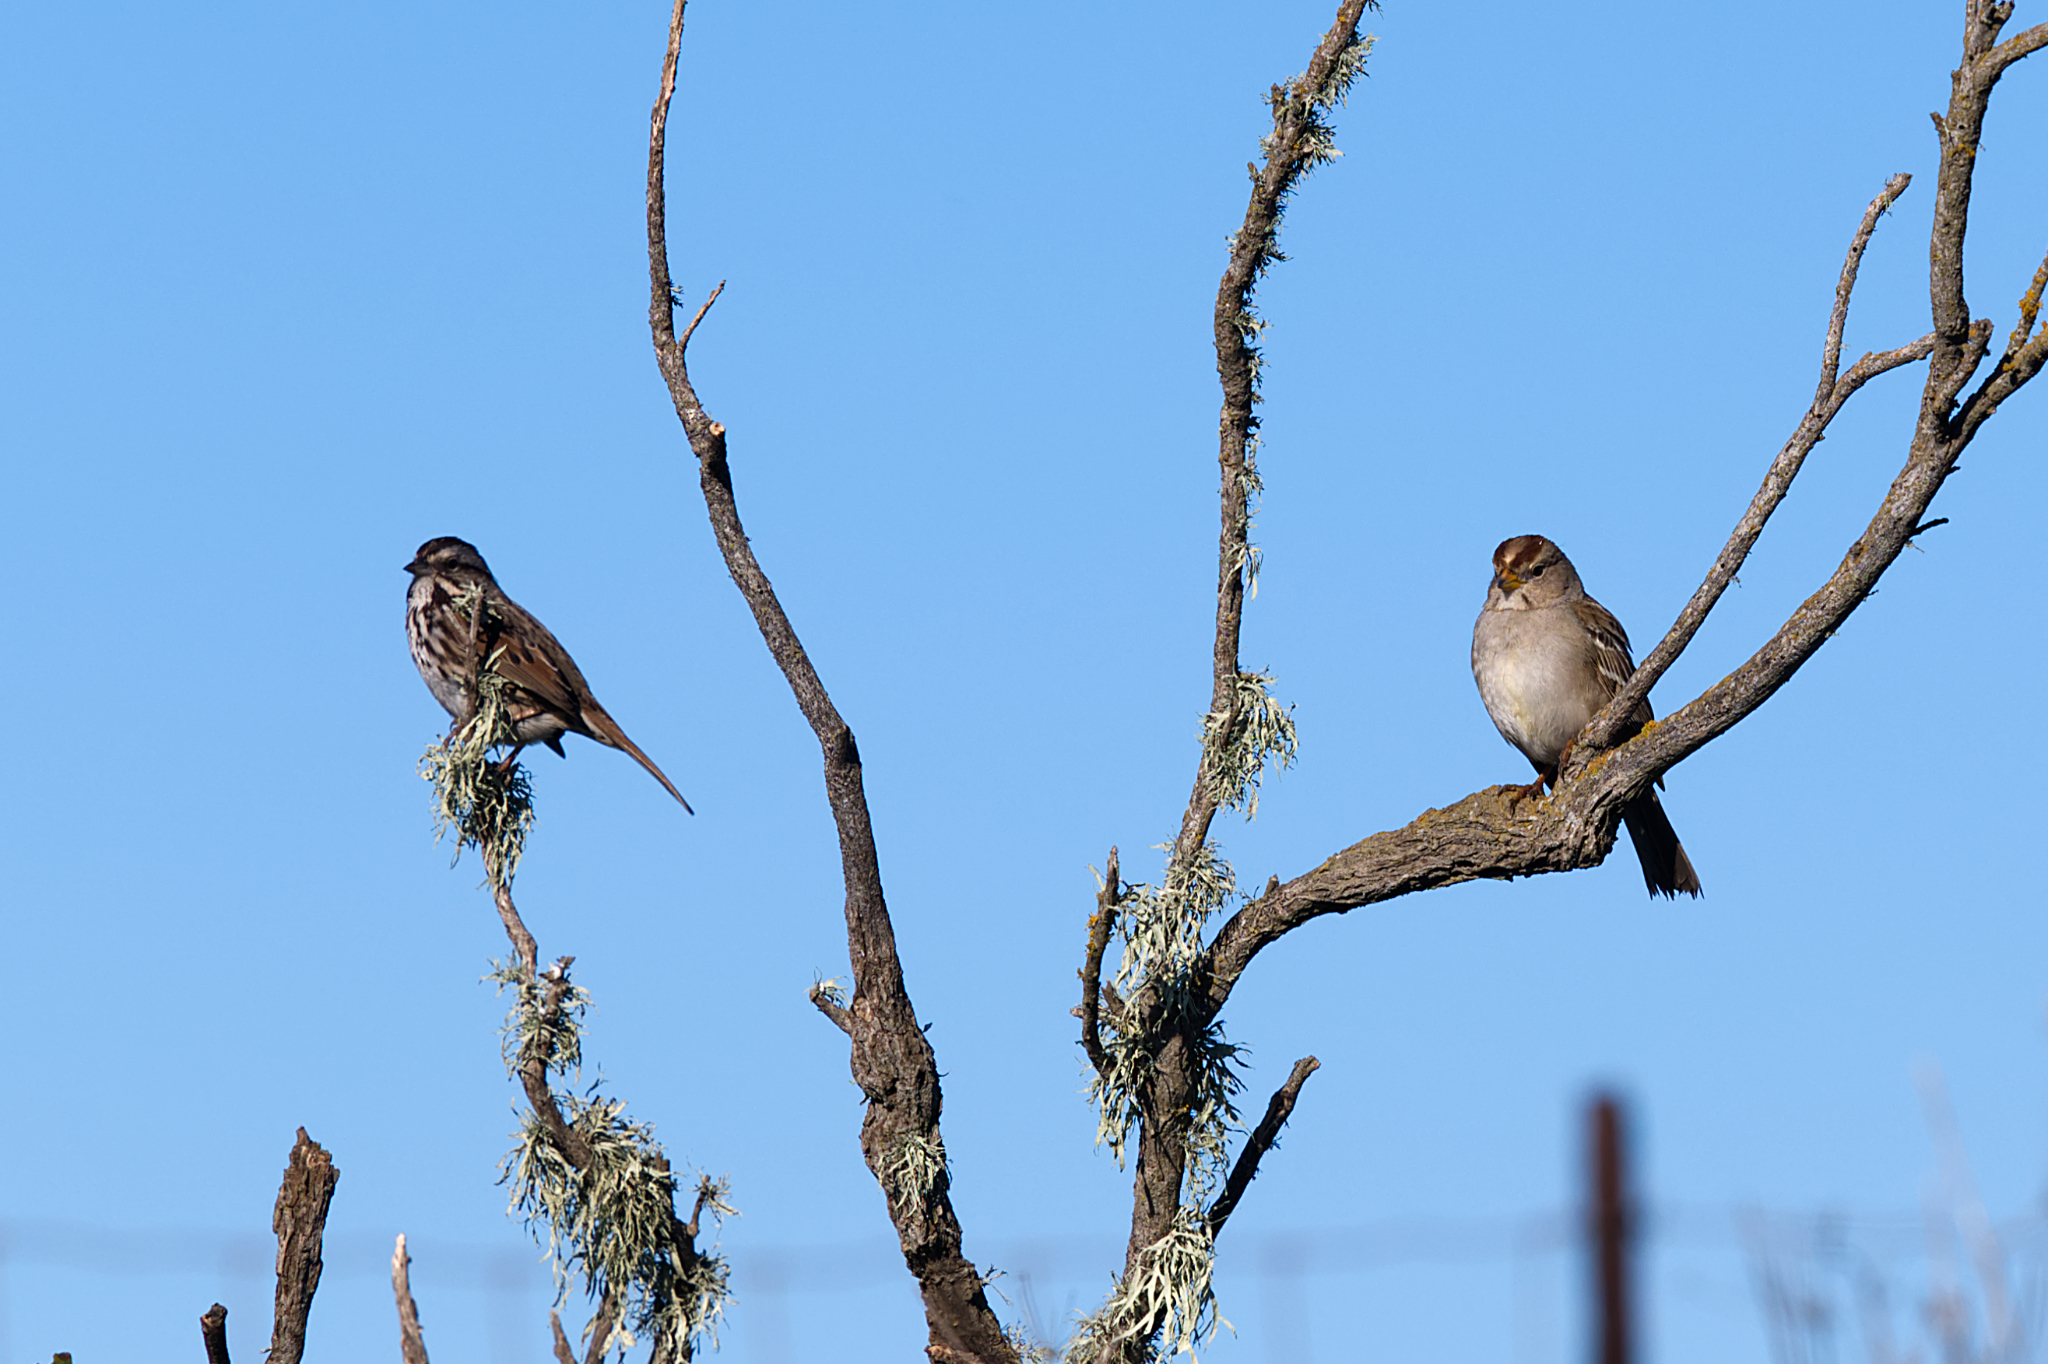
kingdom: Animalia
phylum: Chordata
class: Aves
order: Passeriformes
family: Passerellidae
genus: Zonotrichia
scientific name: Zonotrichia leucophrys
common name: White-crowned sparrow
